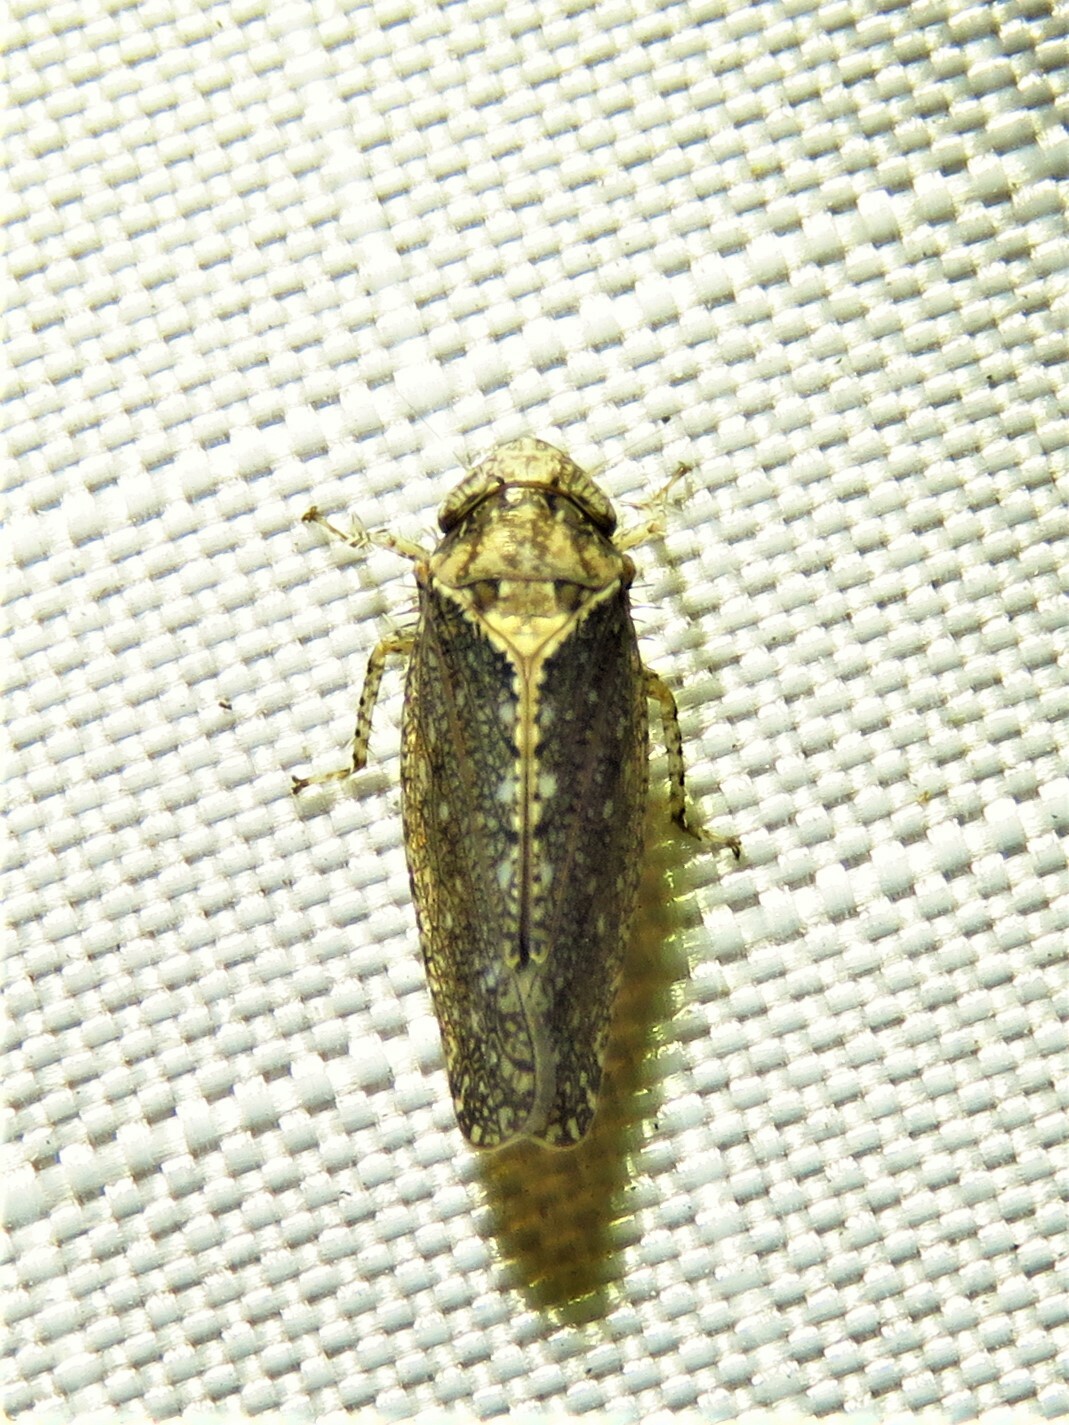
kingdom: Animalia
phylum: Arthropoda
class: Insecta
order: Hemiptera
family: Cicadellidae
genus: Excultanus
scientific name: Excultanus excultus
